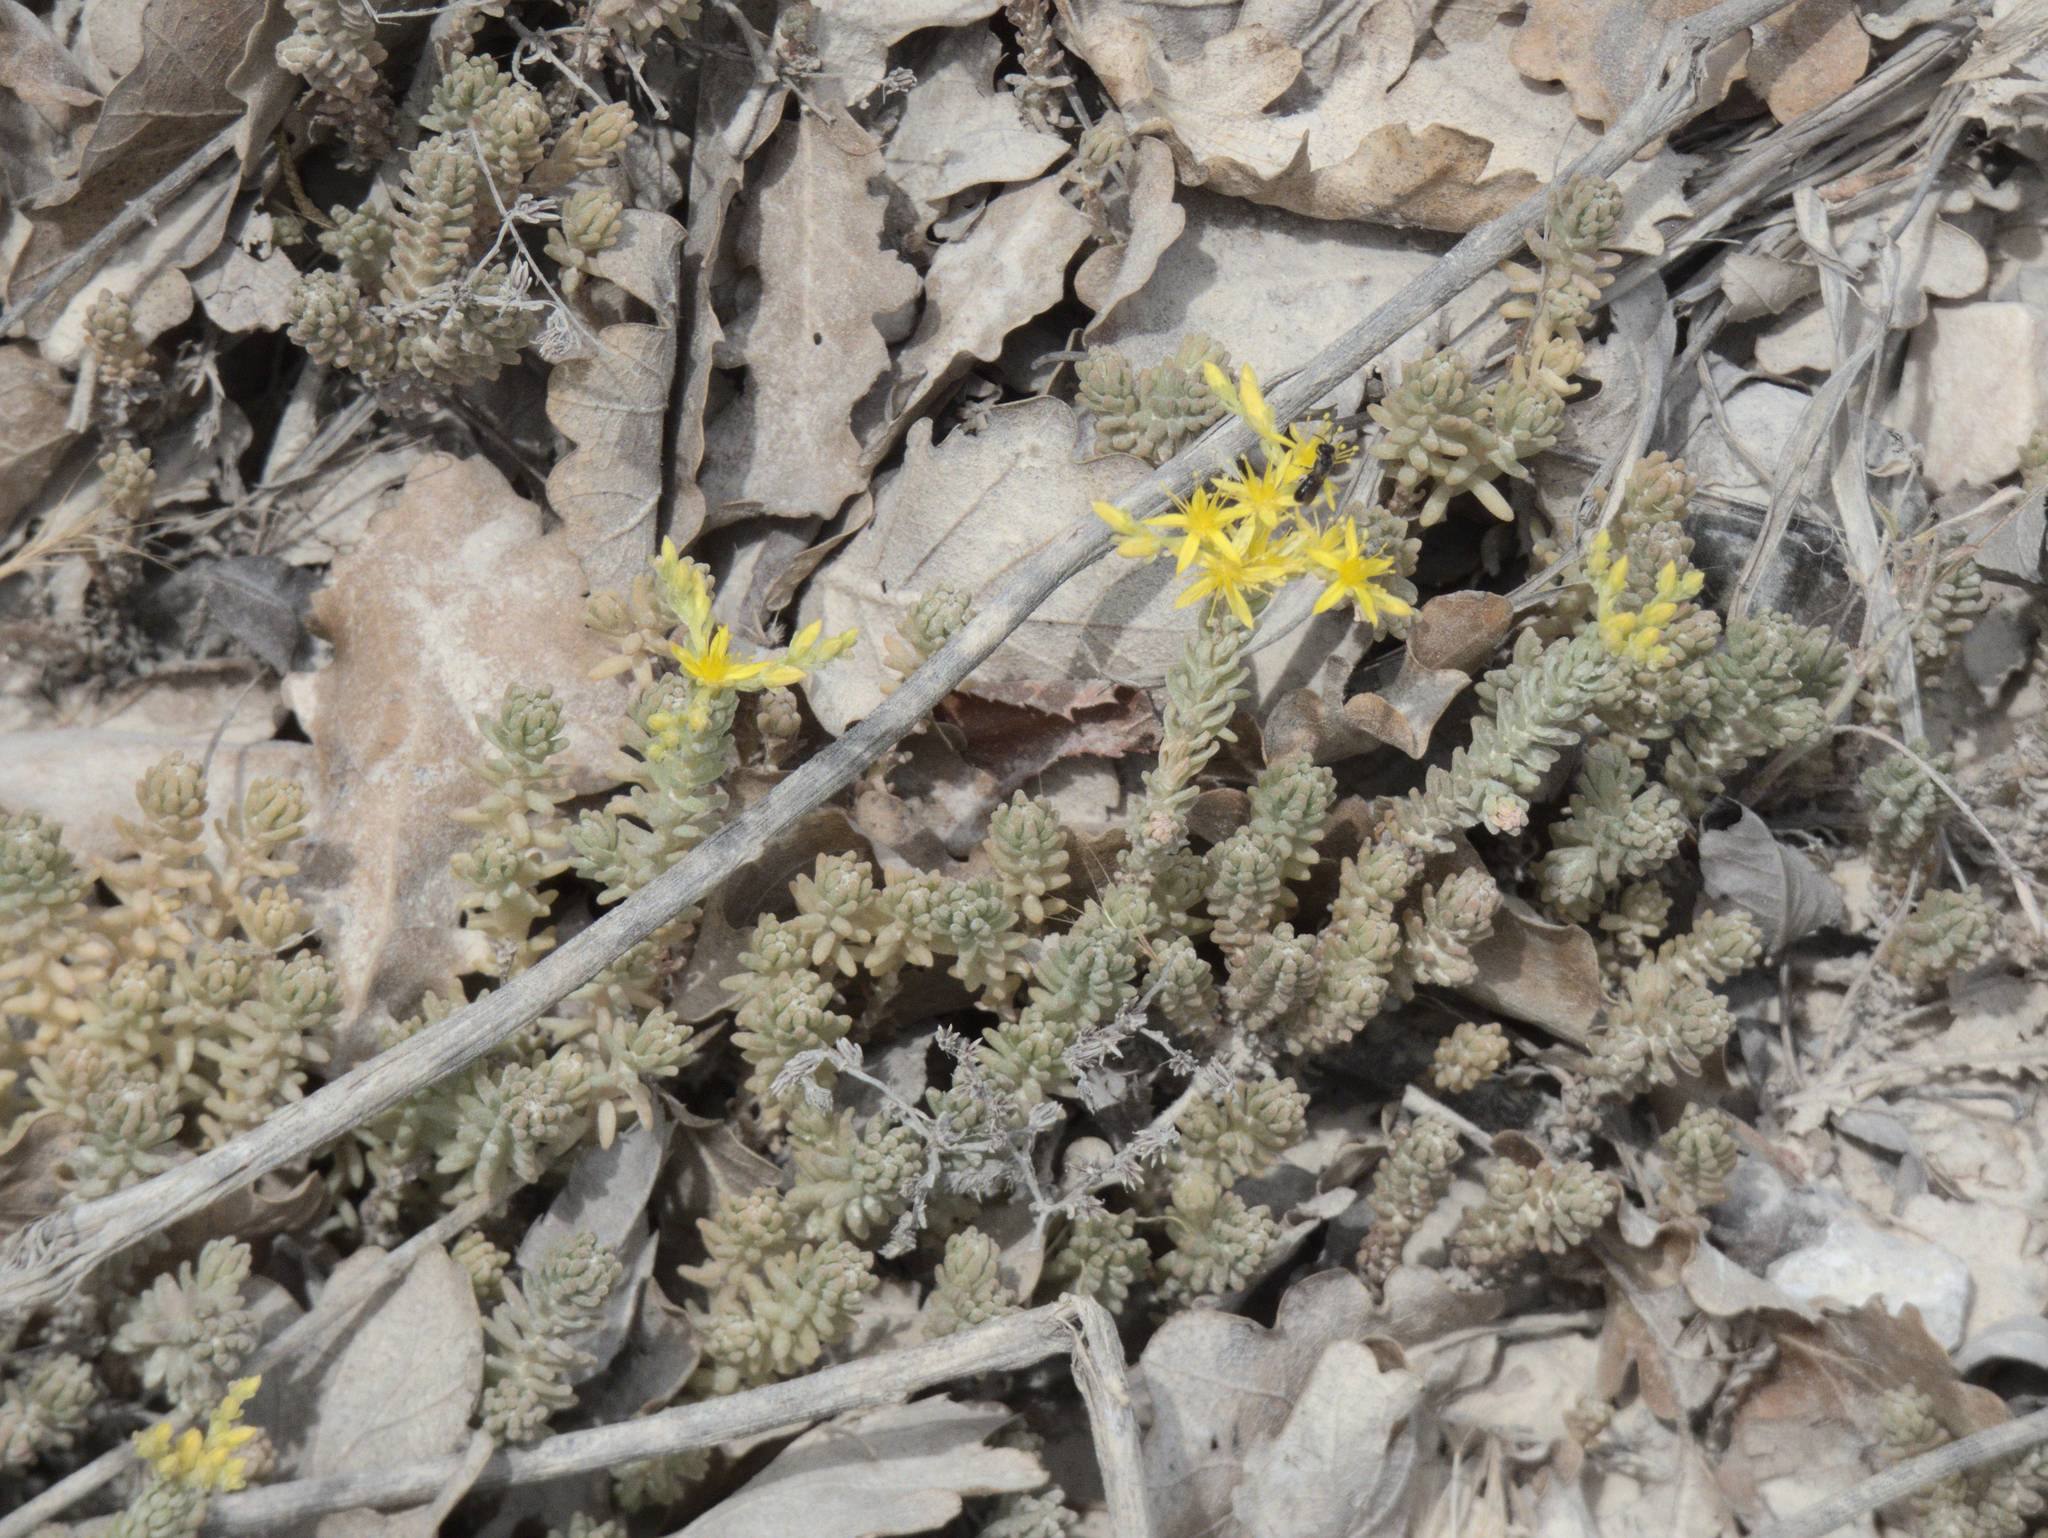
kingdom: Plantae
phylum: Tracheophyta
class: Magnoliopsida
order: Saxifragales
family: Crassulaceae
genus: Sedum
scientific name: Sedum sexangulare
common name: Tasteless stonecrop
